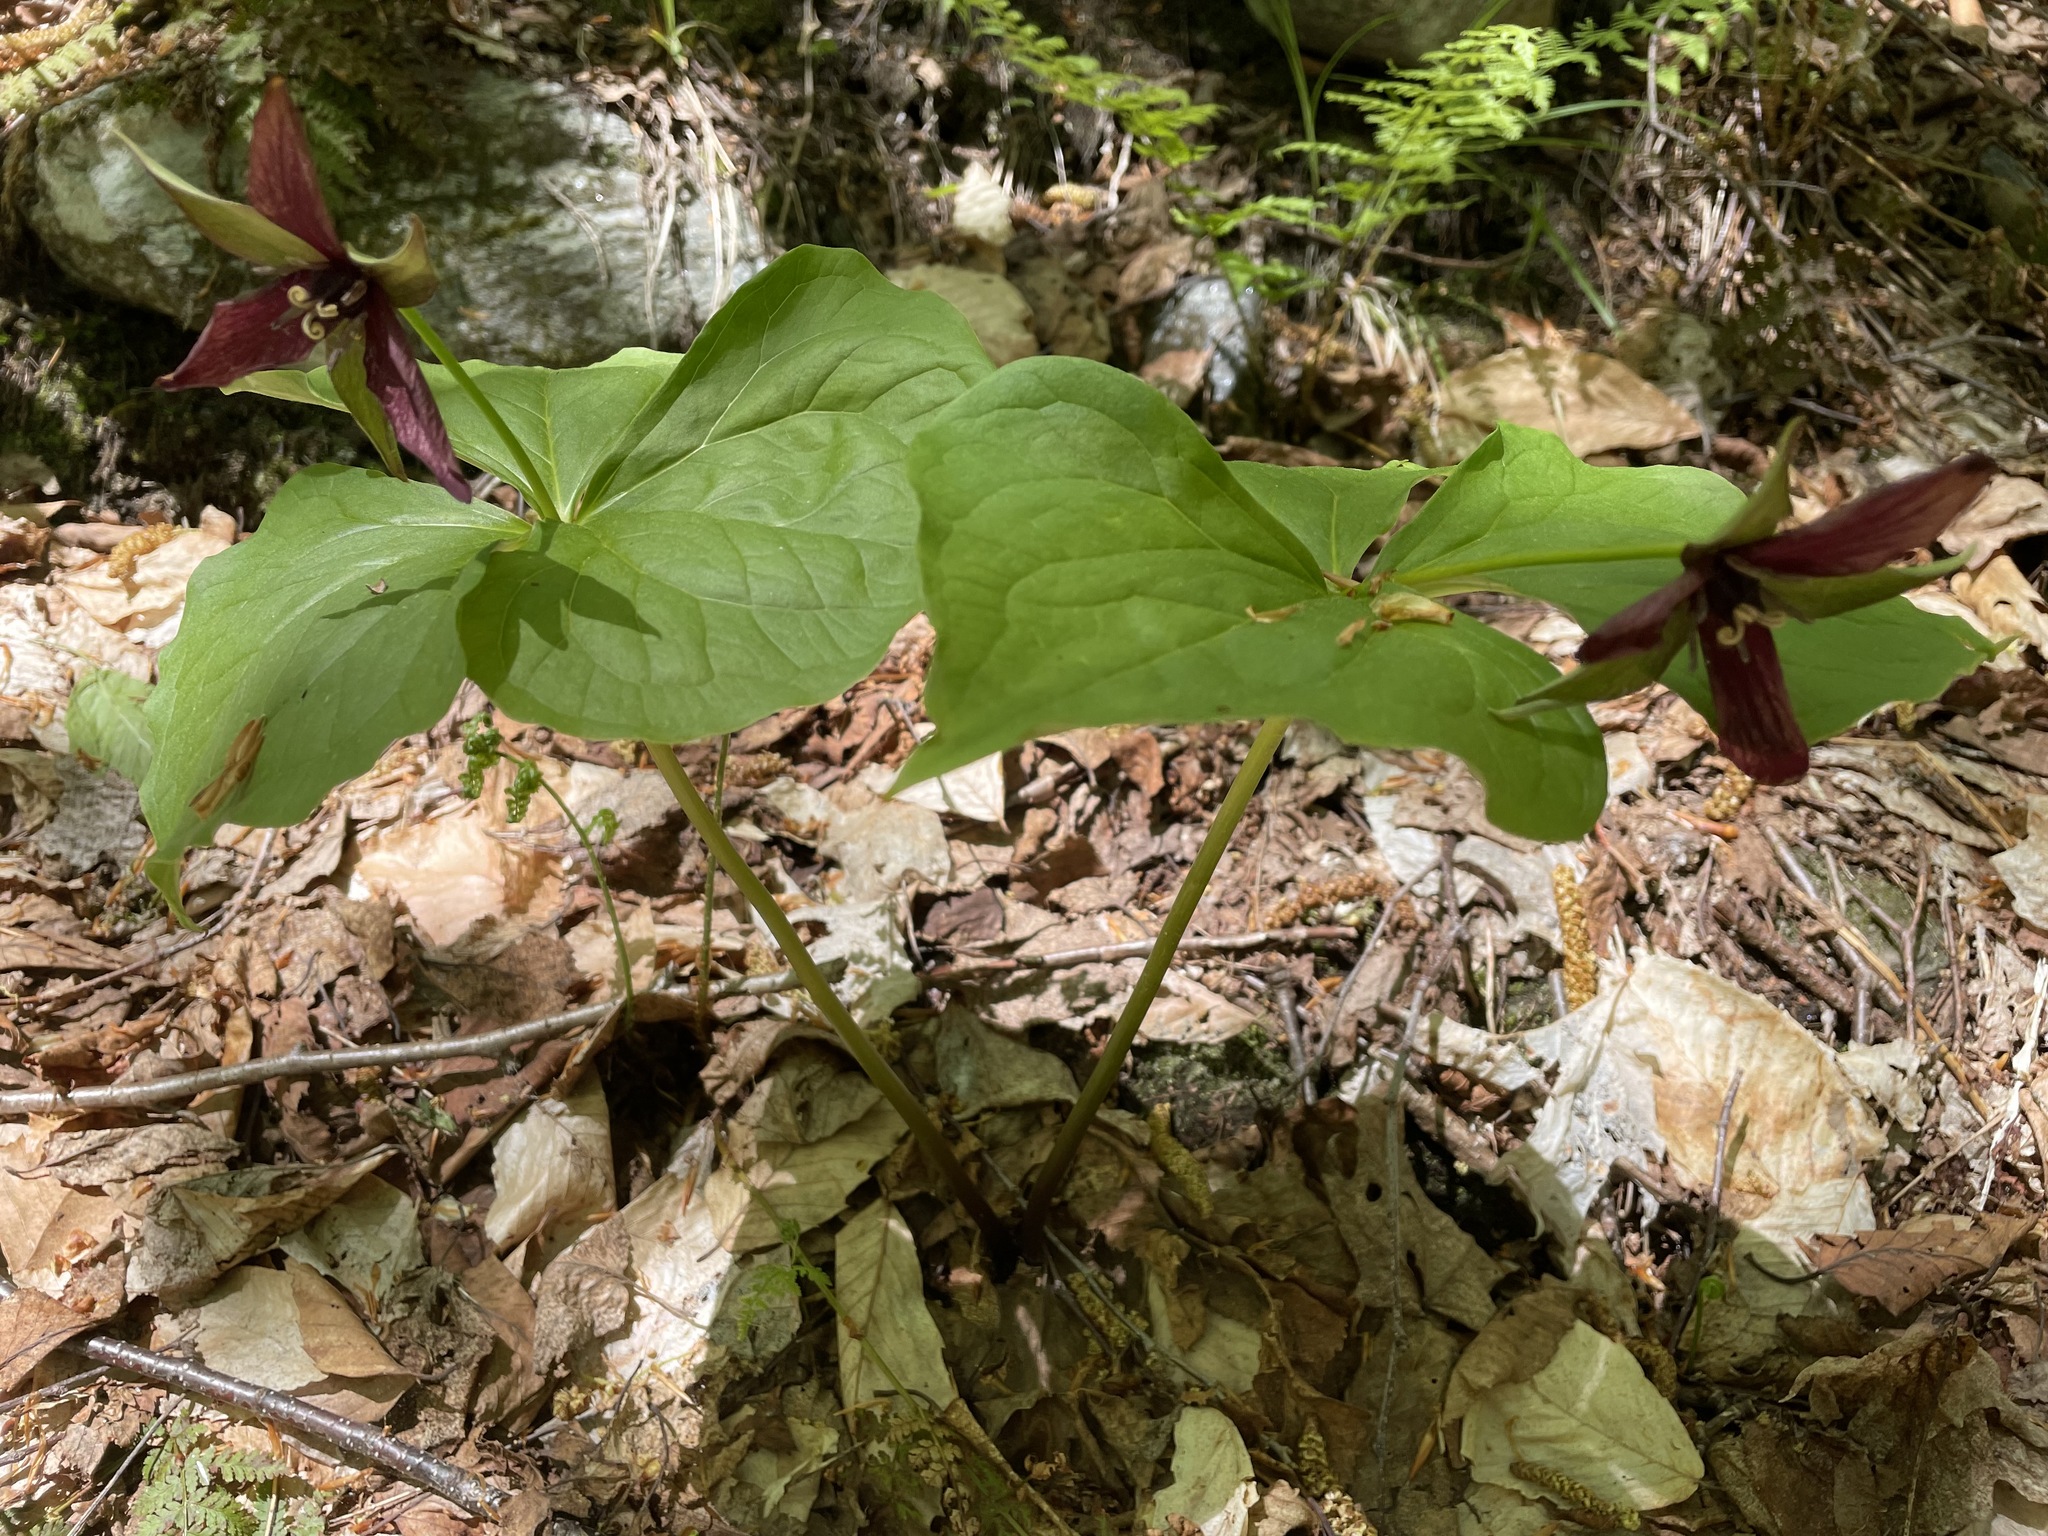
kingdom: Plantae
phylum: Tracheophyta
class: Liliopsida
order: Liliales
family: Melanthiaceae
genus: Trillium
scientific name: Trillium erectum
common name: Purple trillium
